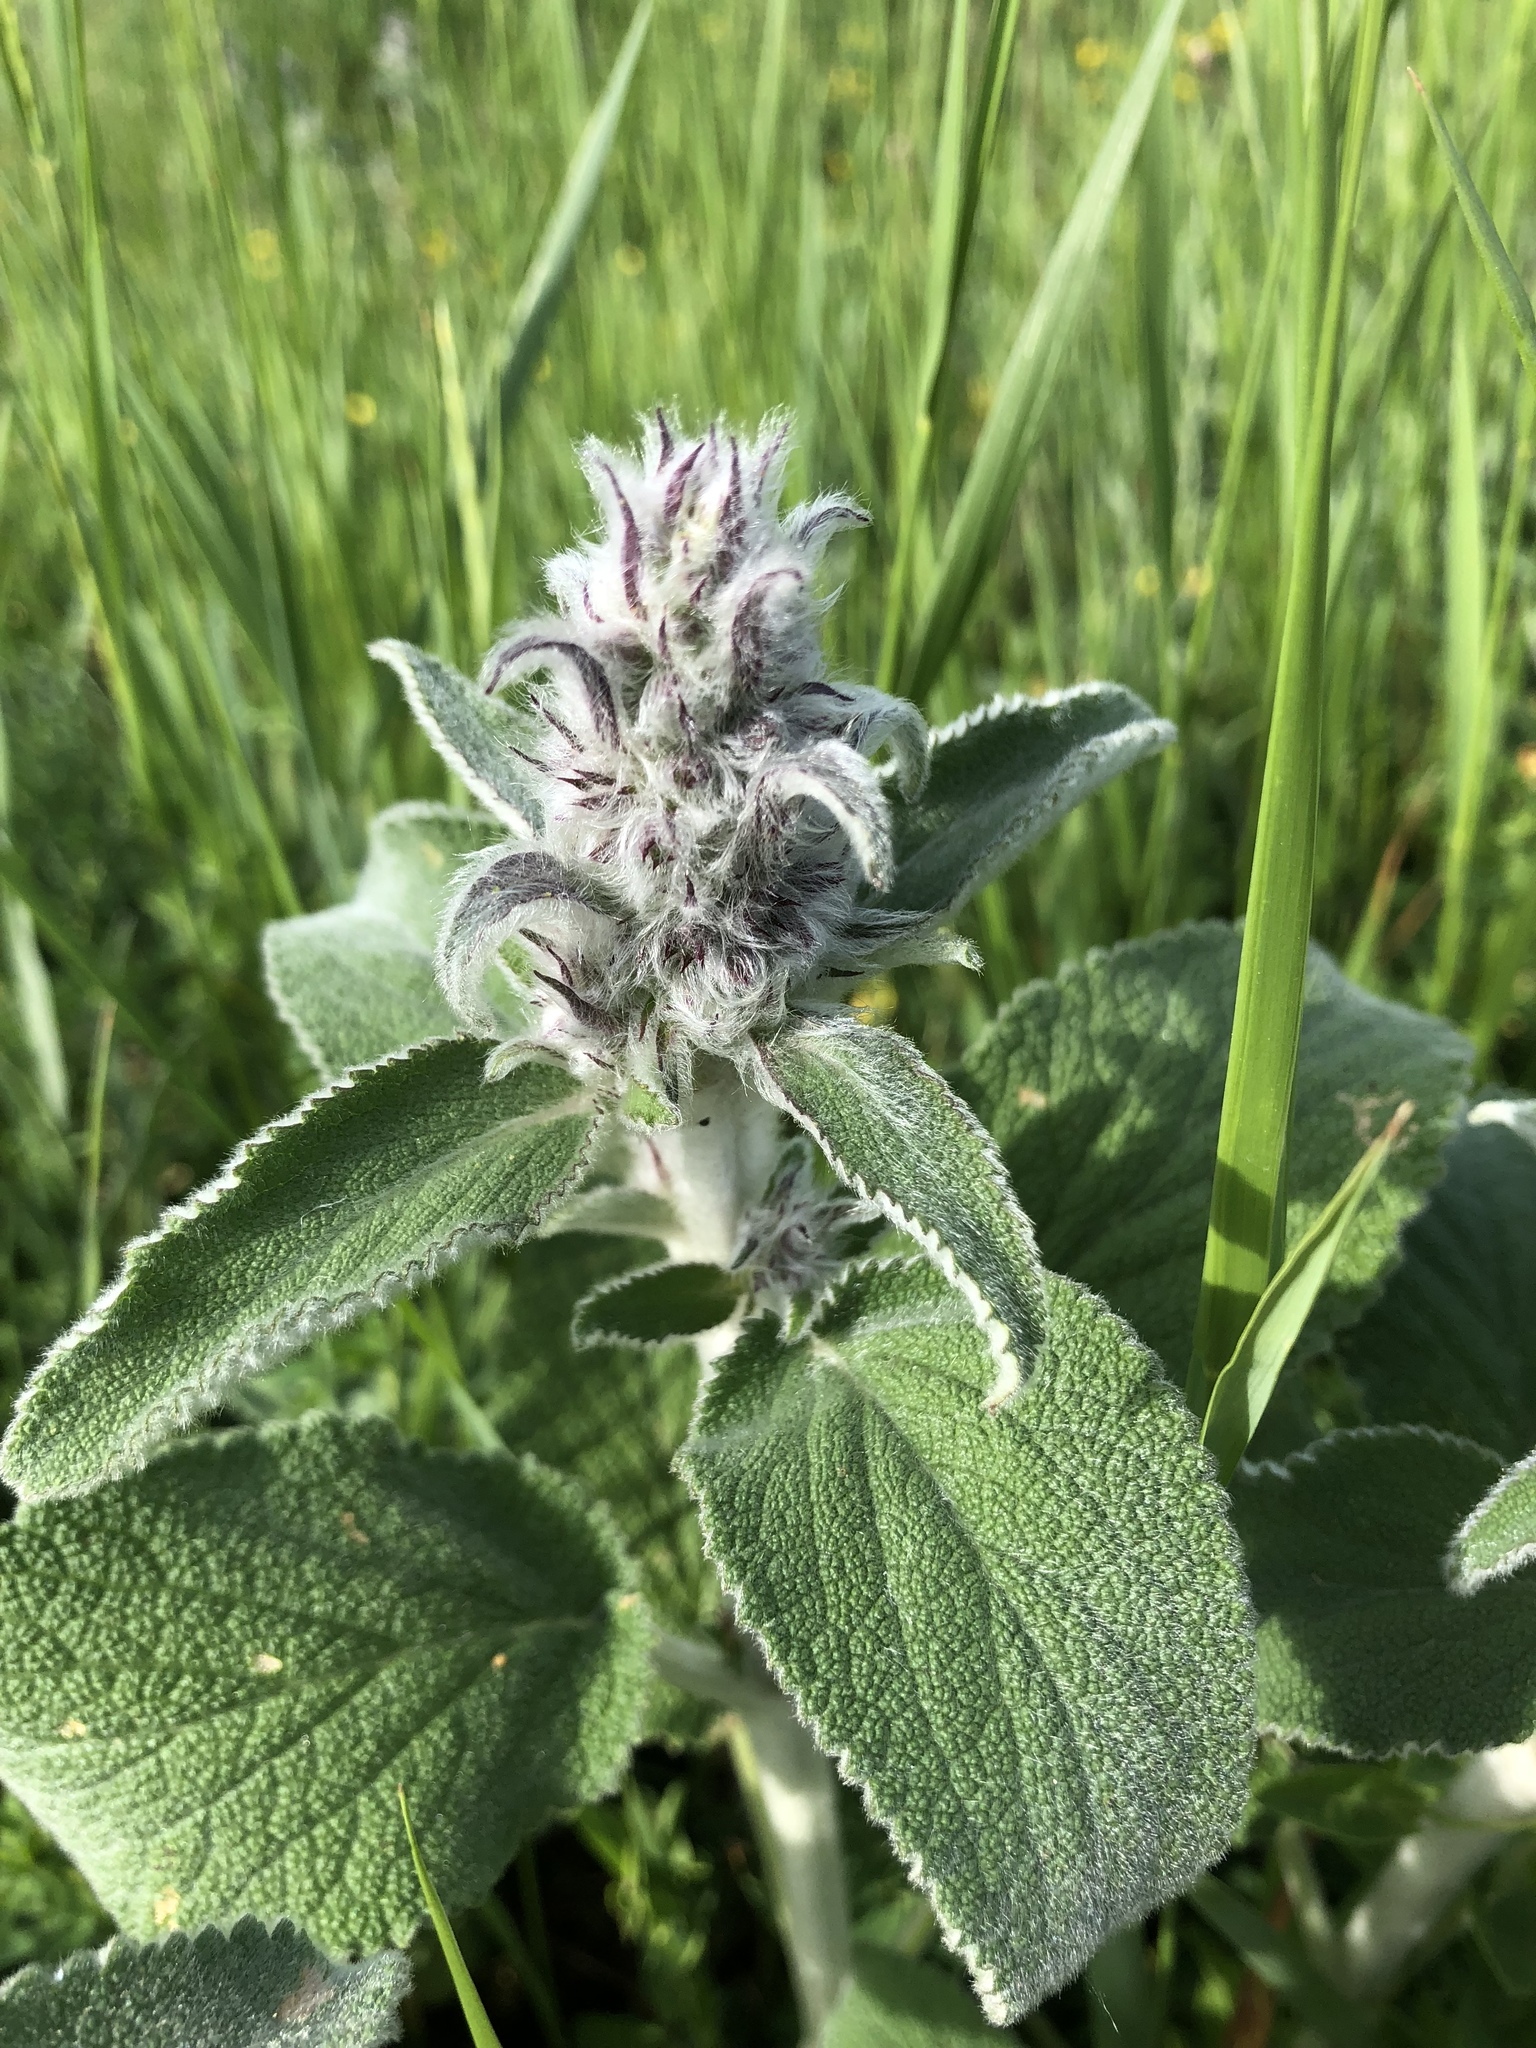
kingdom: Plantae
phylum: Tracheophyta
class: Magnoliopsida
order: Lamiales
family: Lamiaceae
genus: Stachys
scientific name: Stachys byzantina
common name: Lamb's-ear
